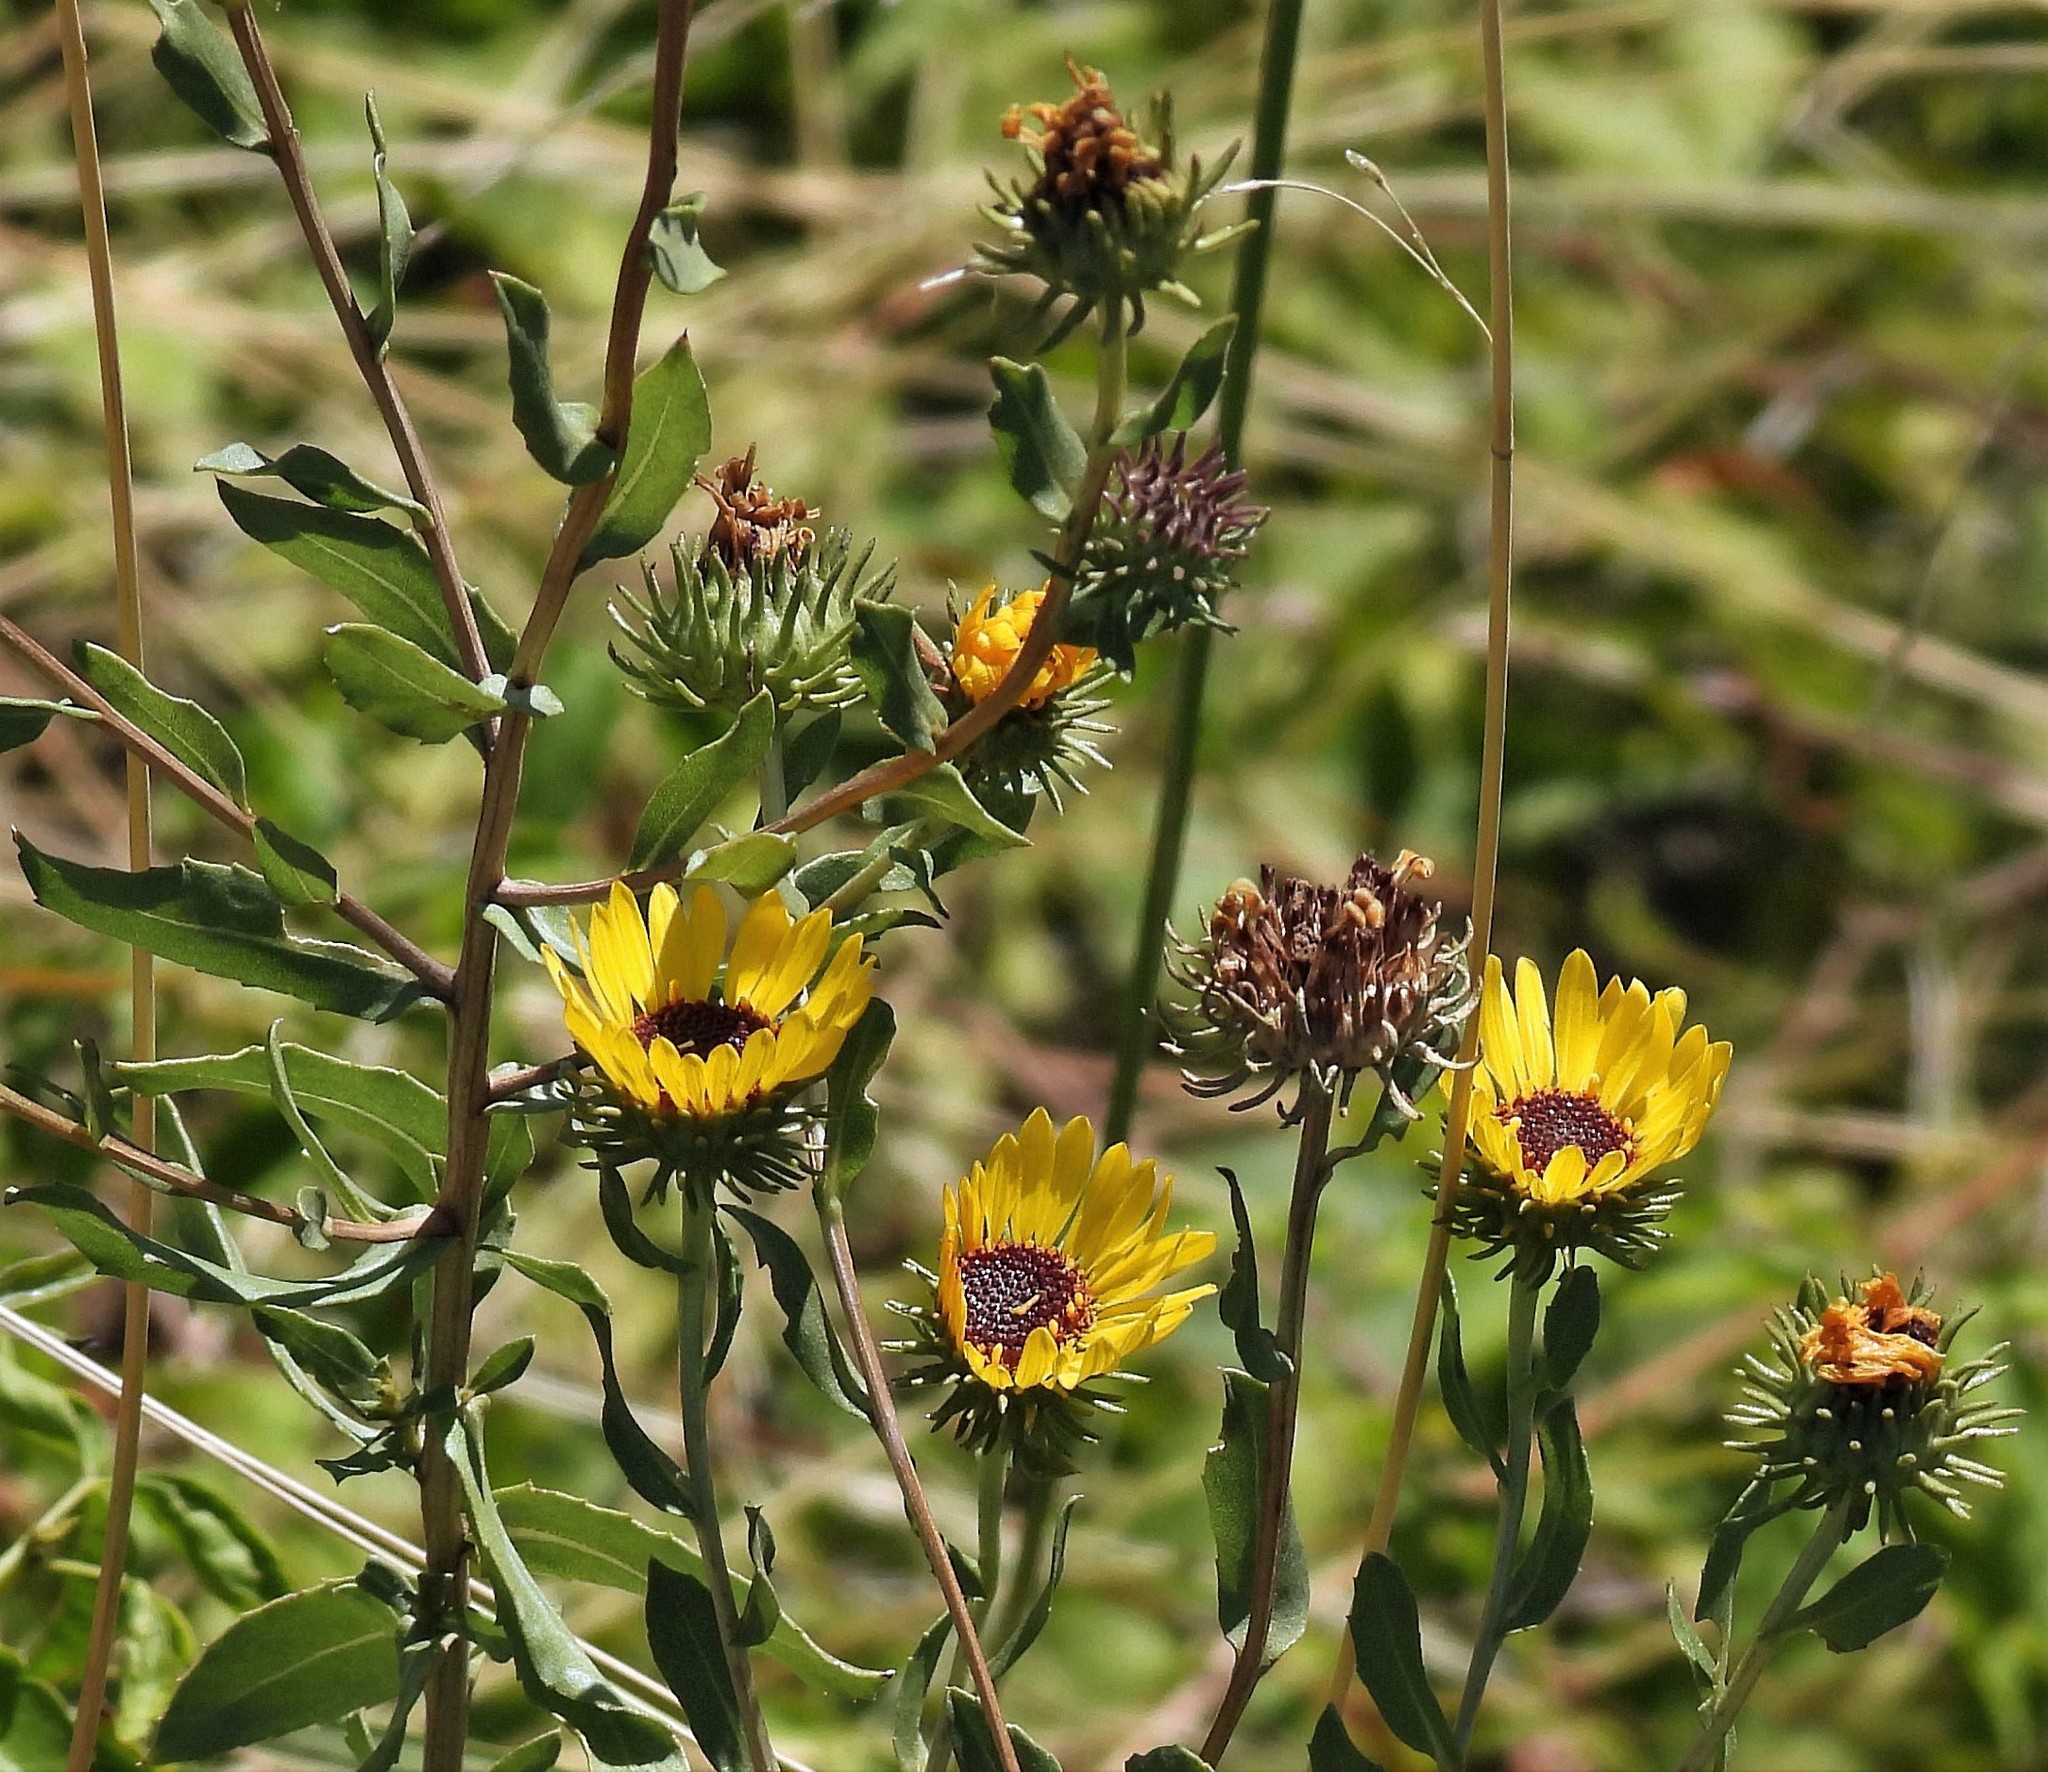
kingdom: Plantae
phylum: Tracheophyta
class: Magnoliopsida
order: Asterales
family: Asteraceae
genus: Grindelia
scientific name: Grindelia pulchella
